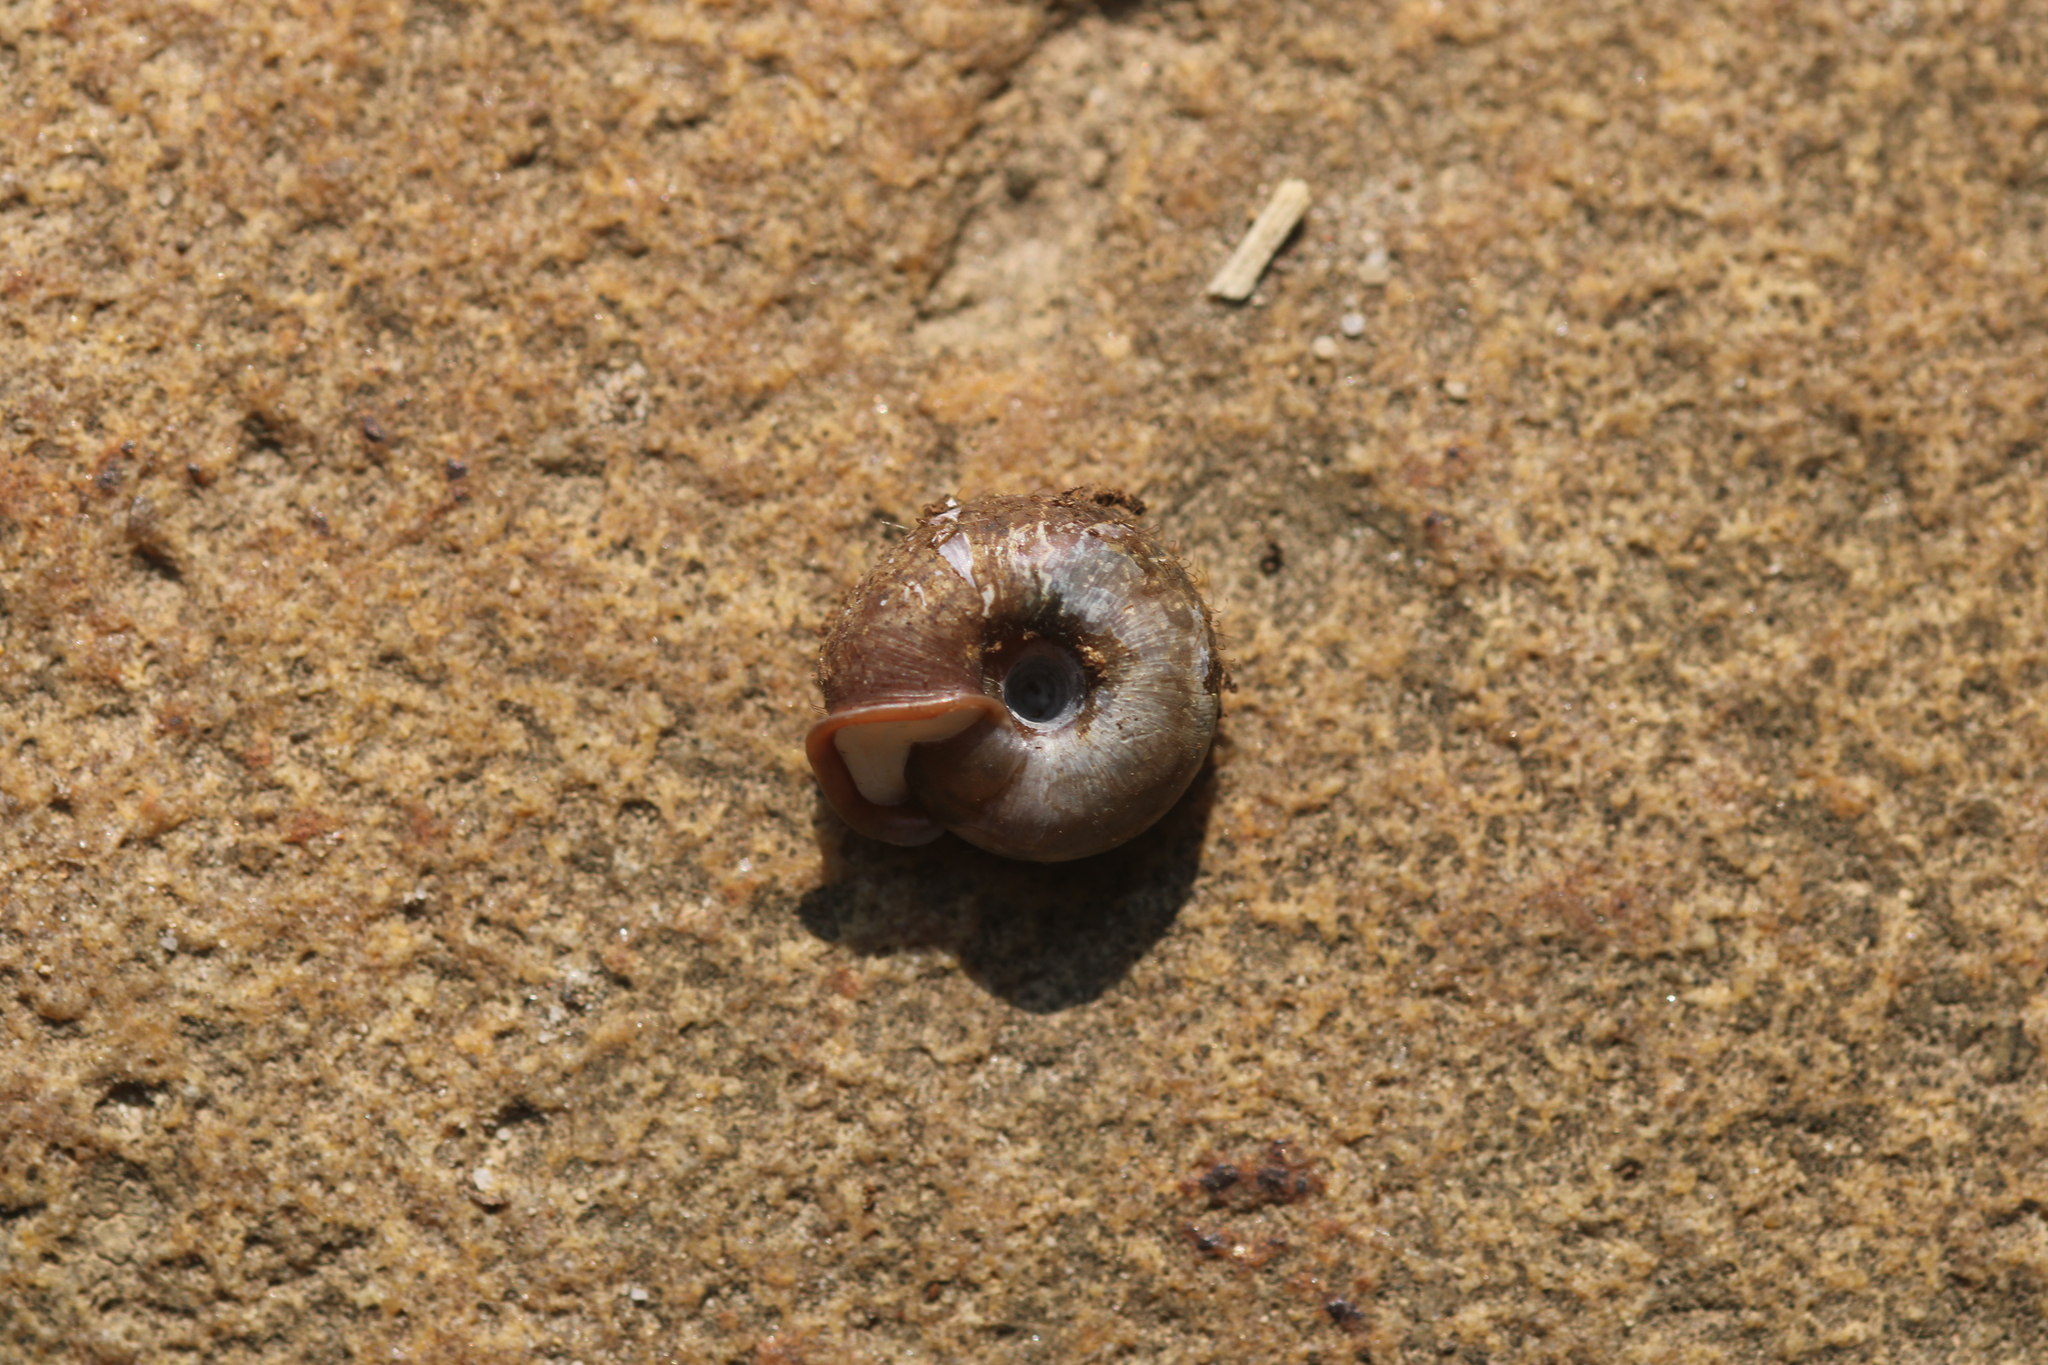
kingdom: Animalia
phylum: Mollusca
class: Gastropoda
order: Stylommatophora
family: Helicodontidae
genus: Helicodonta
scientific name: Helicodonta obvoluta
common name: Cheese snail
